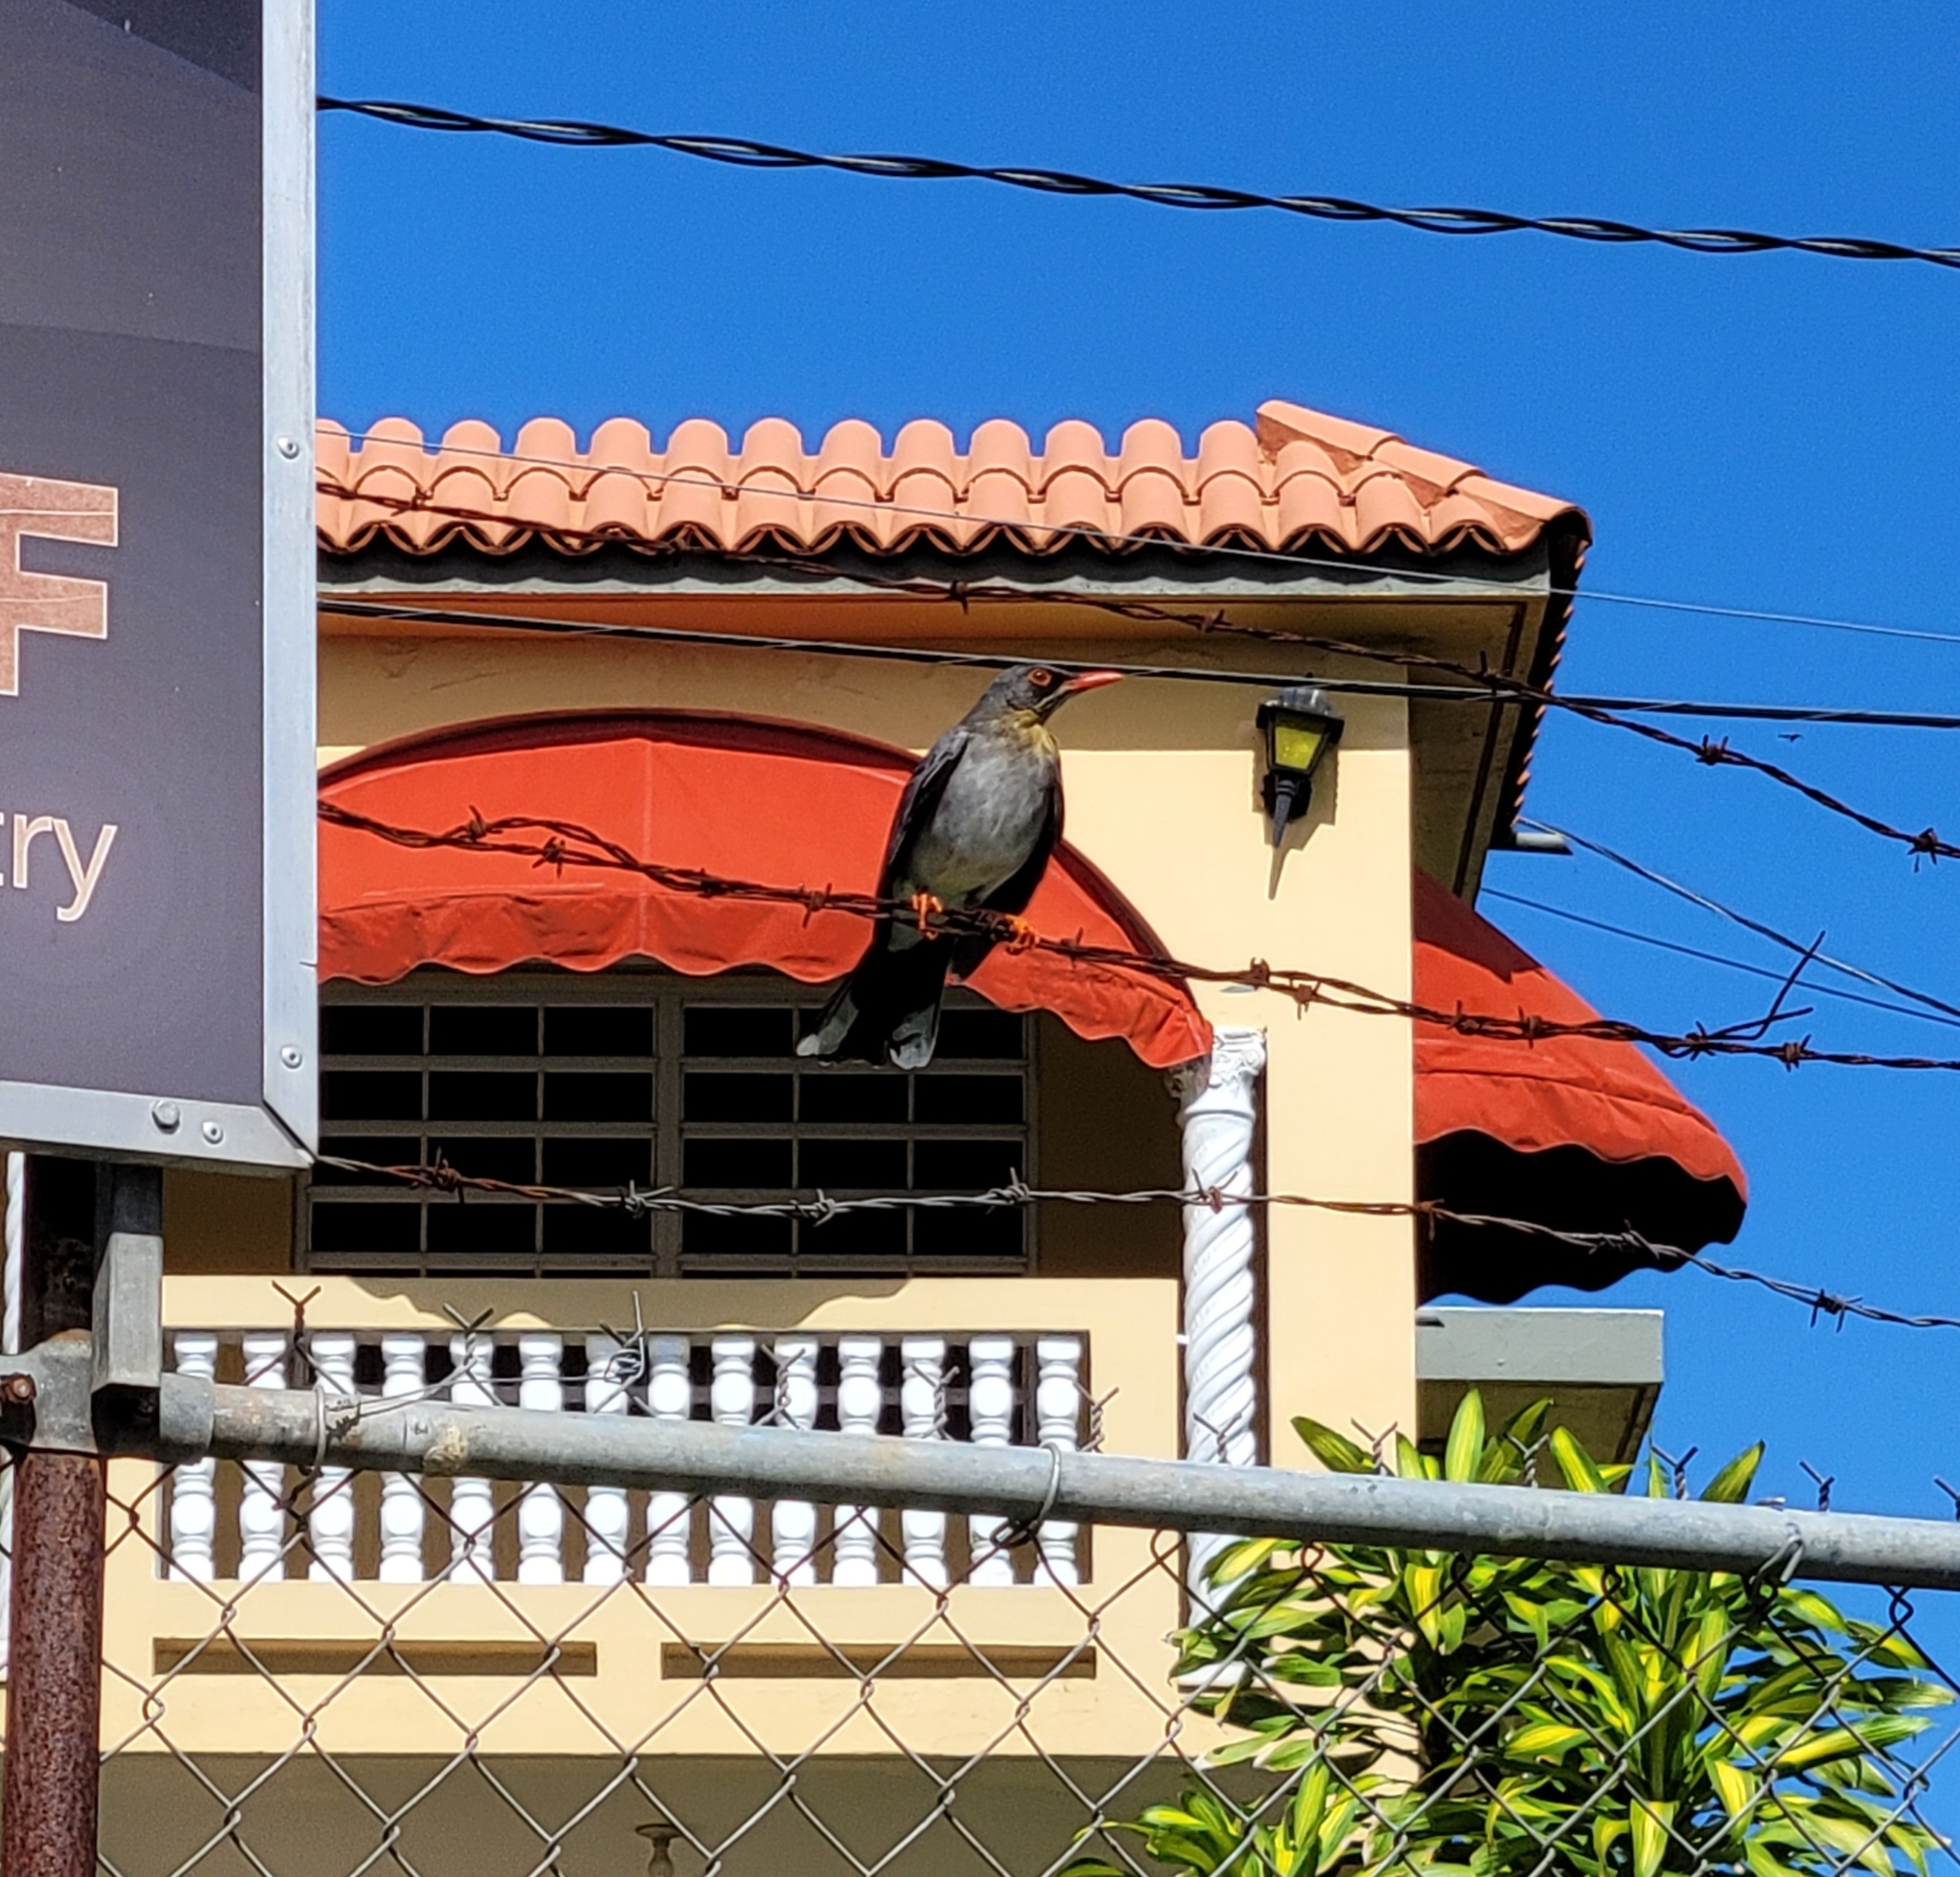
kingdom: Animalia
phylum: Chordata
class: Aves
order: Passeriformes
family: Turdidae
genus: Turdus
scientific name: Turdus plumbeus
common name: Red-legged thrush
